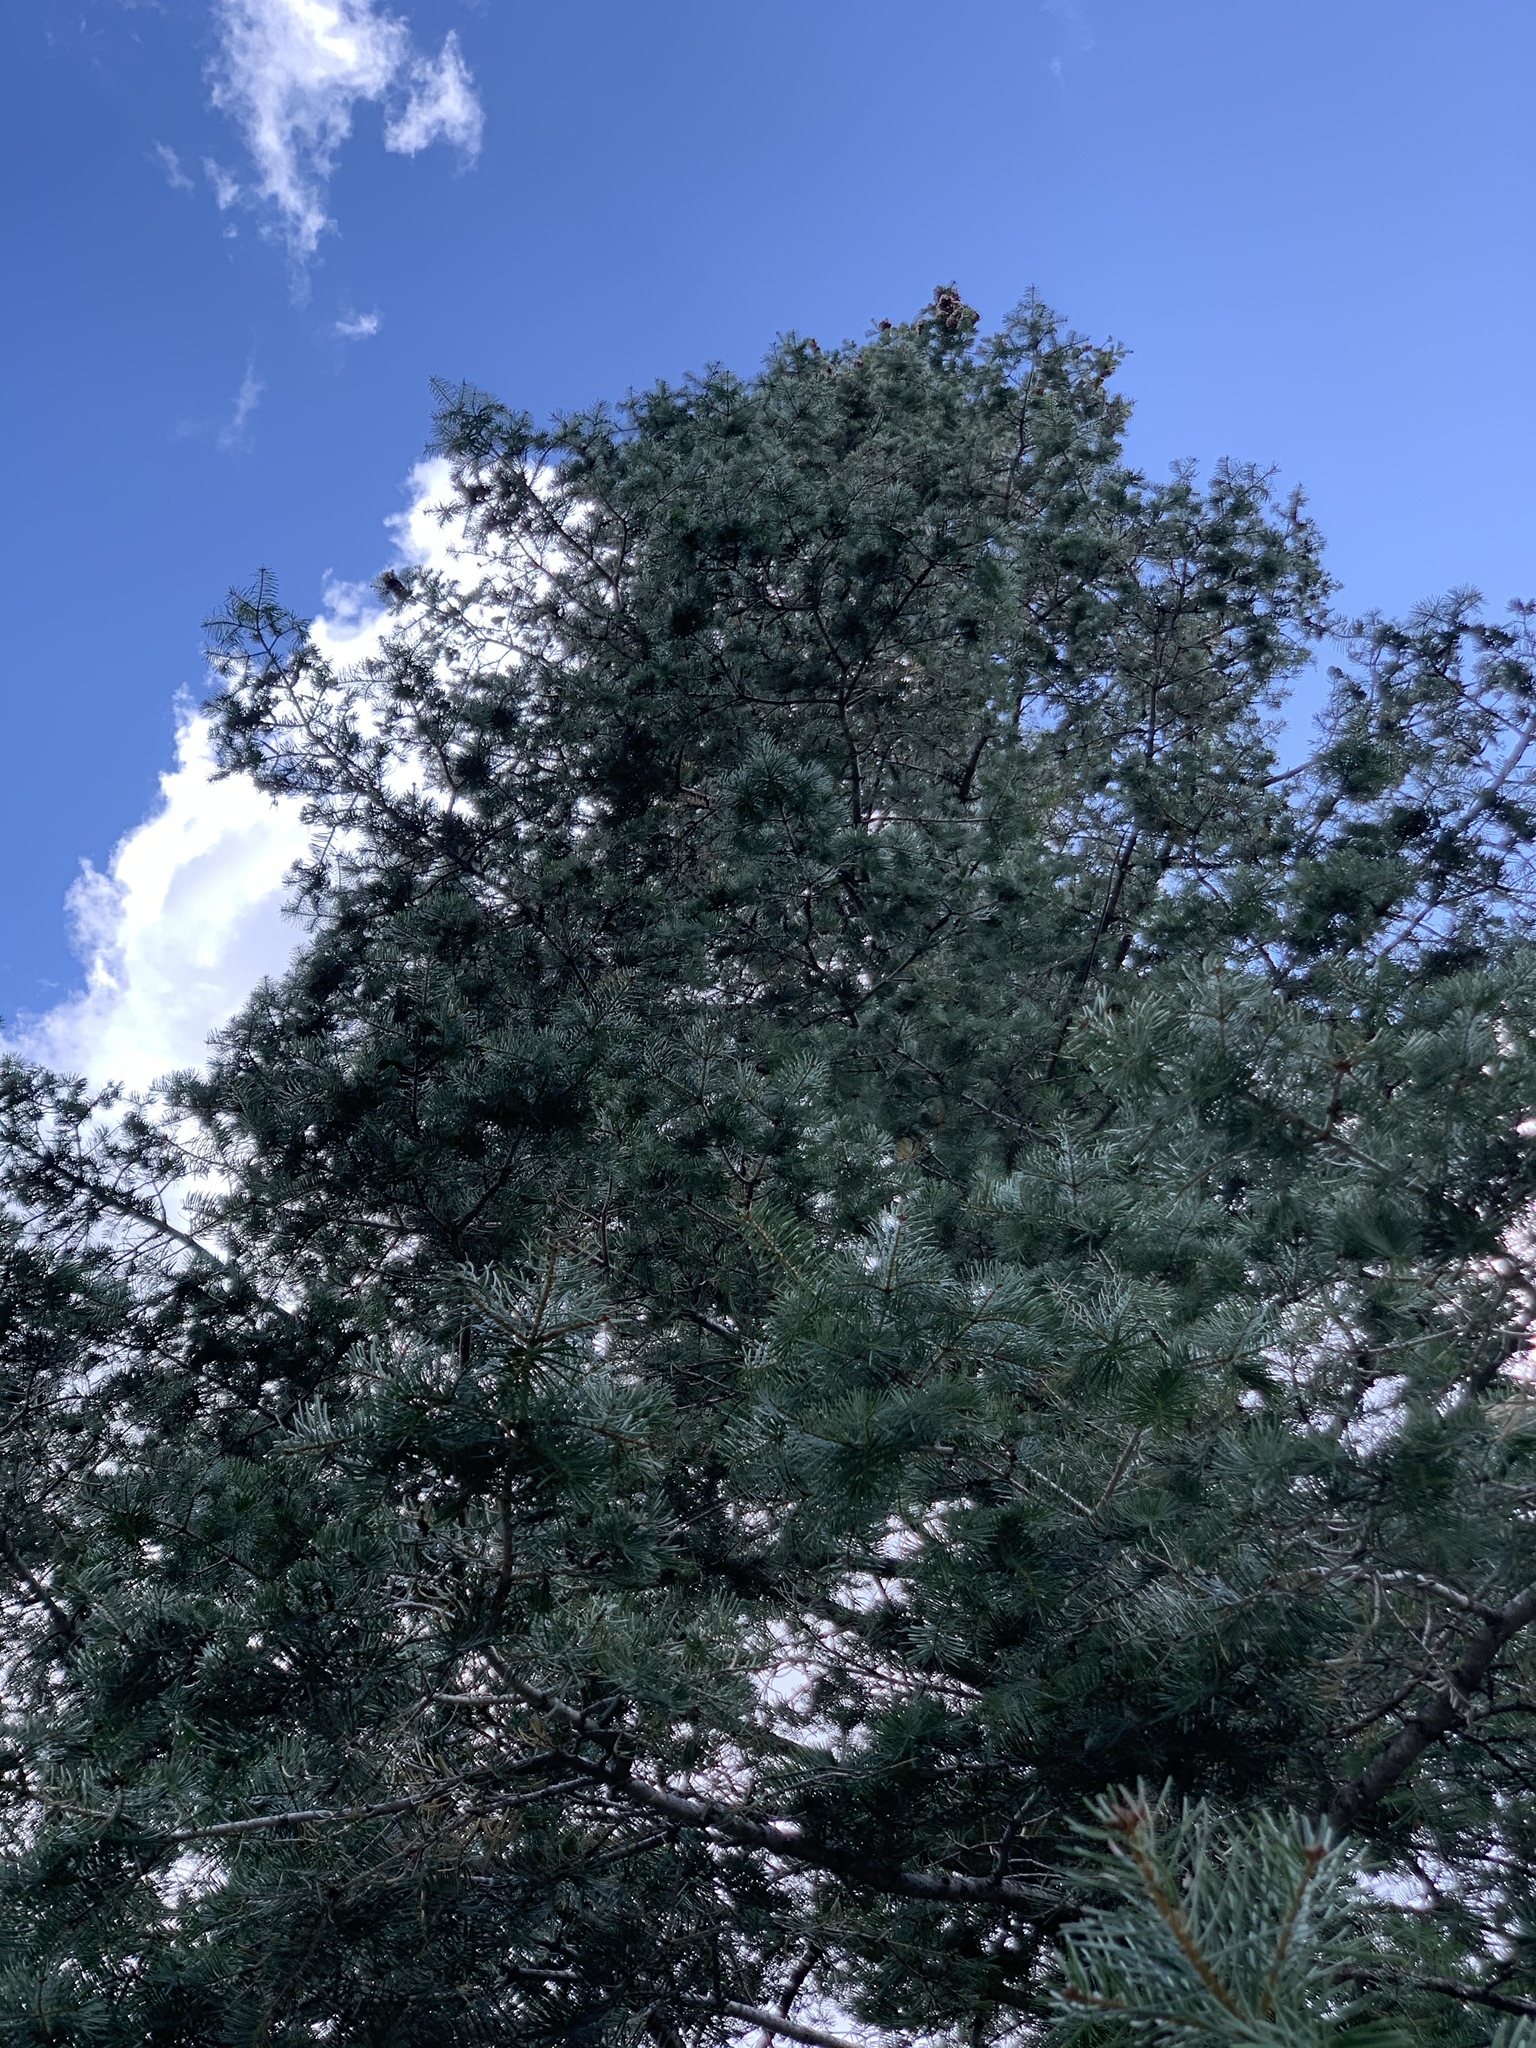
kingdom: Plantae
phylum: Tracheophyta
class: Pinopsida
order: Pinales
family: Pinaceae
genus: Pseudotsuga
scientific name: Pseudotsuga menziesii
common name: Douglas fir
